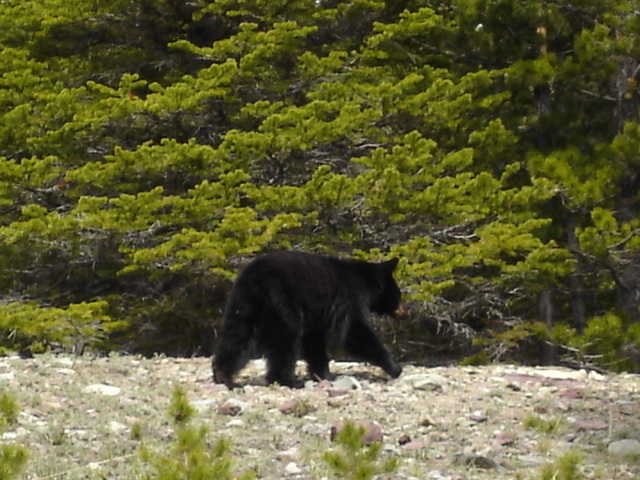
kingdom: Animalia
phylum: Chordata
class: Mammalia
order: Carnivora
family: Ursidae
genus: Ursus
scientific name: Ursus americanus
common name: American black bear
